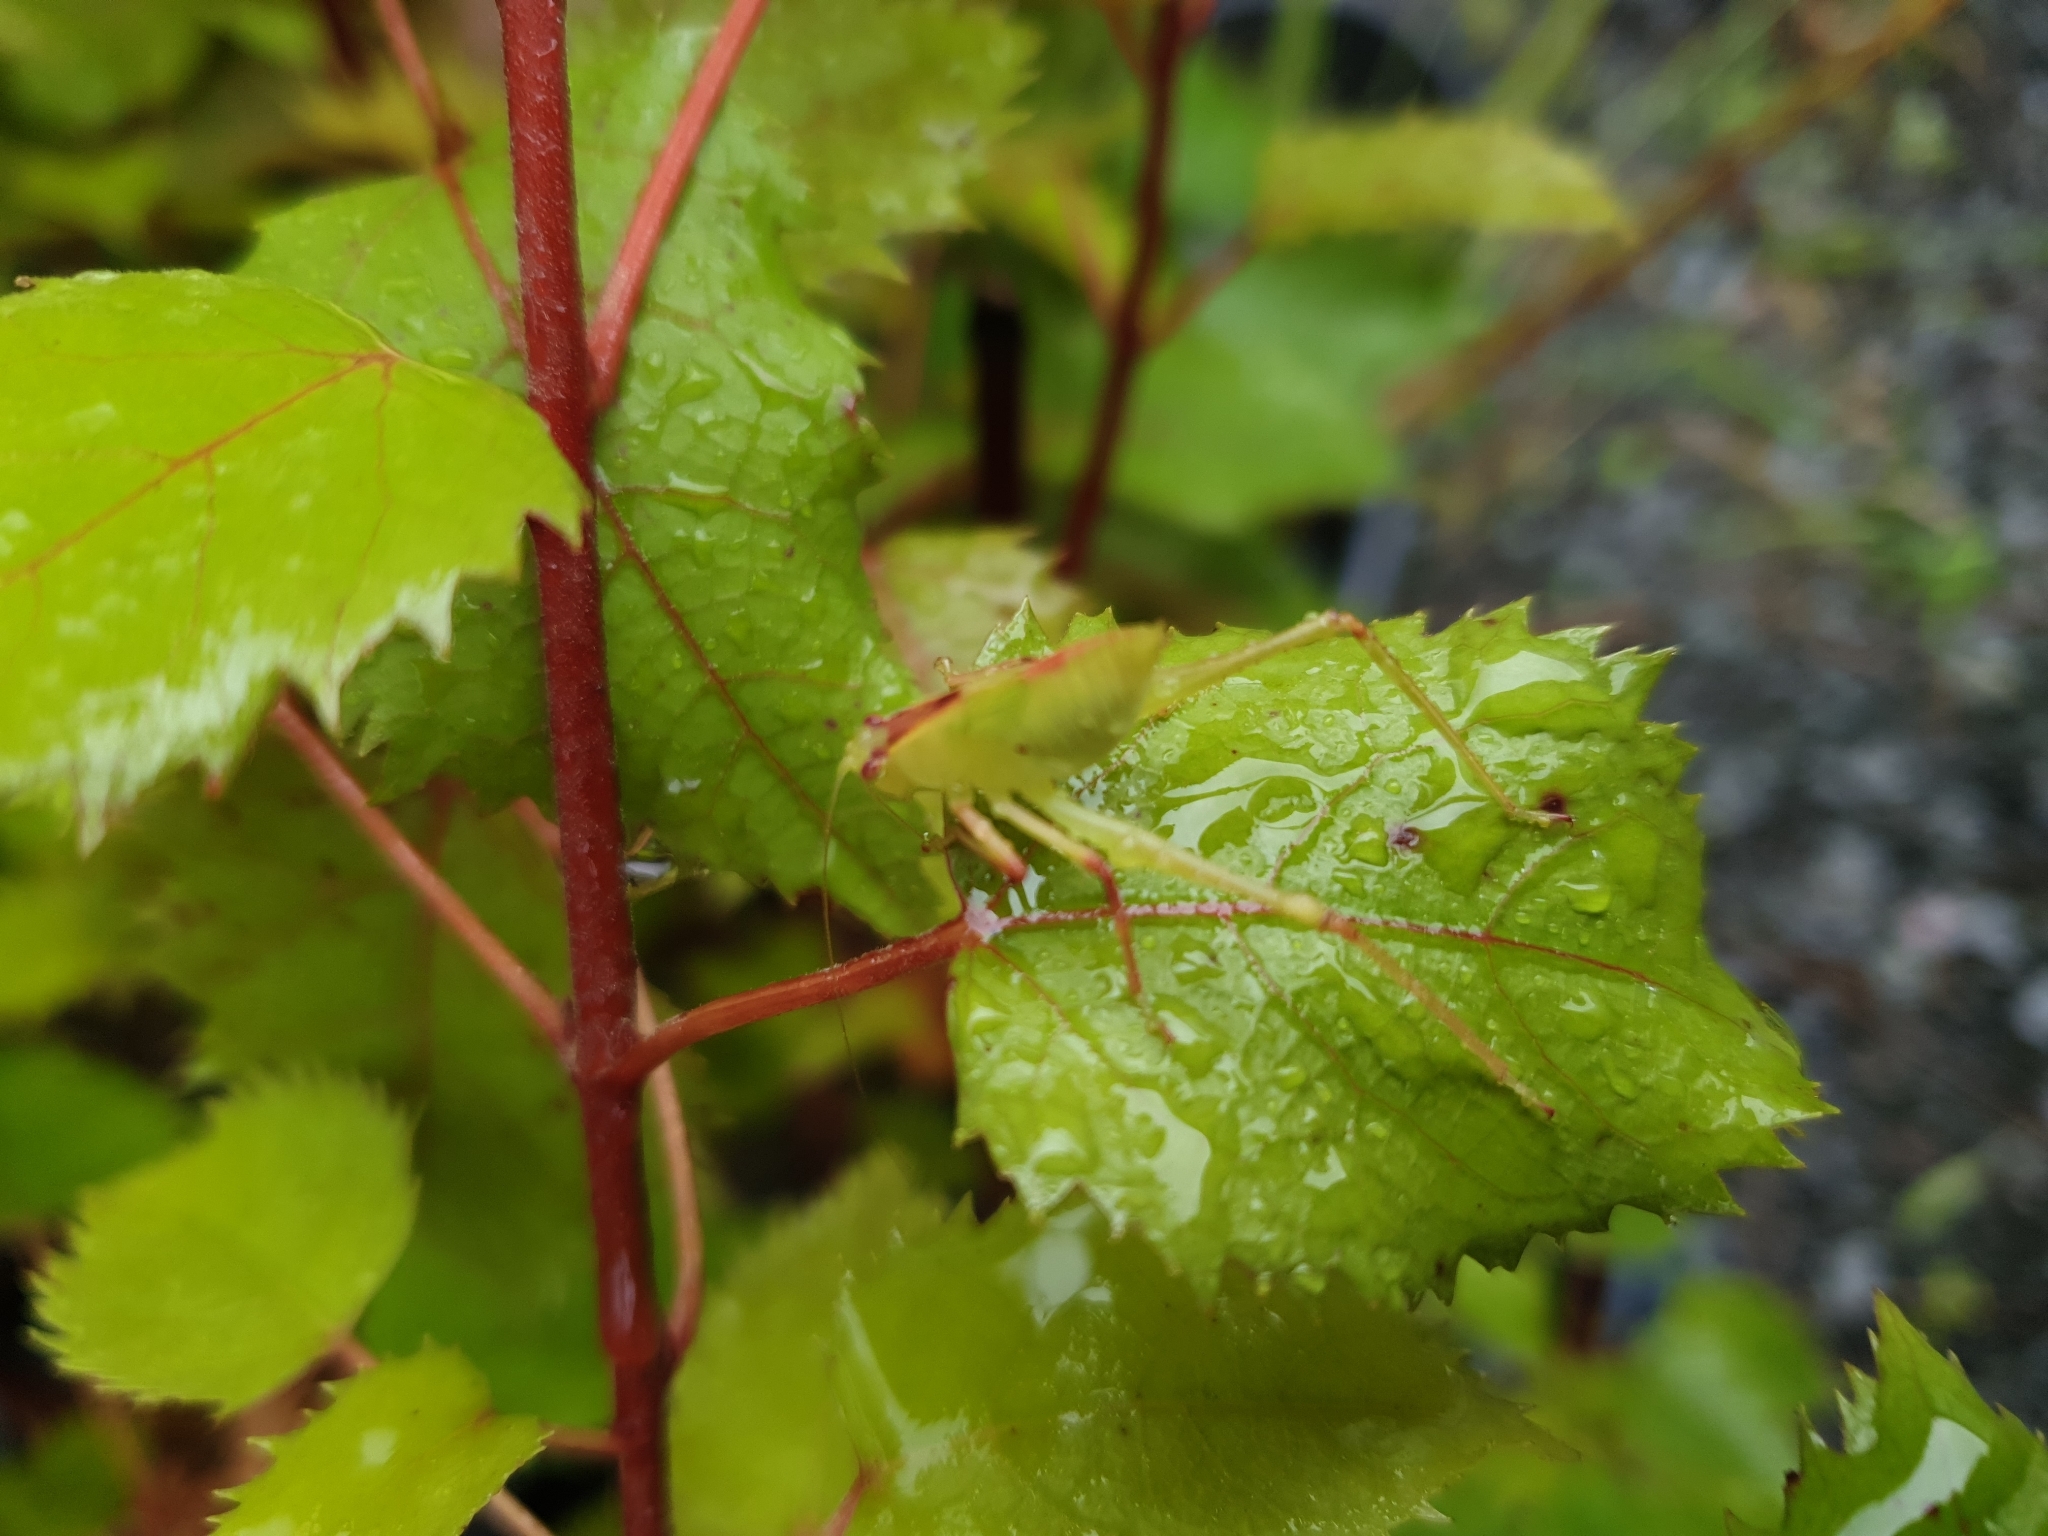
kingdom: Animalia
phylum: Arthropoda
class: Insecta
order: Orthoptera
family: Tettigoniidae
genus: Caedicia
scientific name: Caedicia simplex
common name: Common garden katydid
